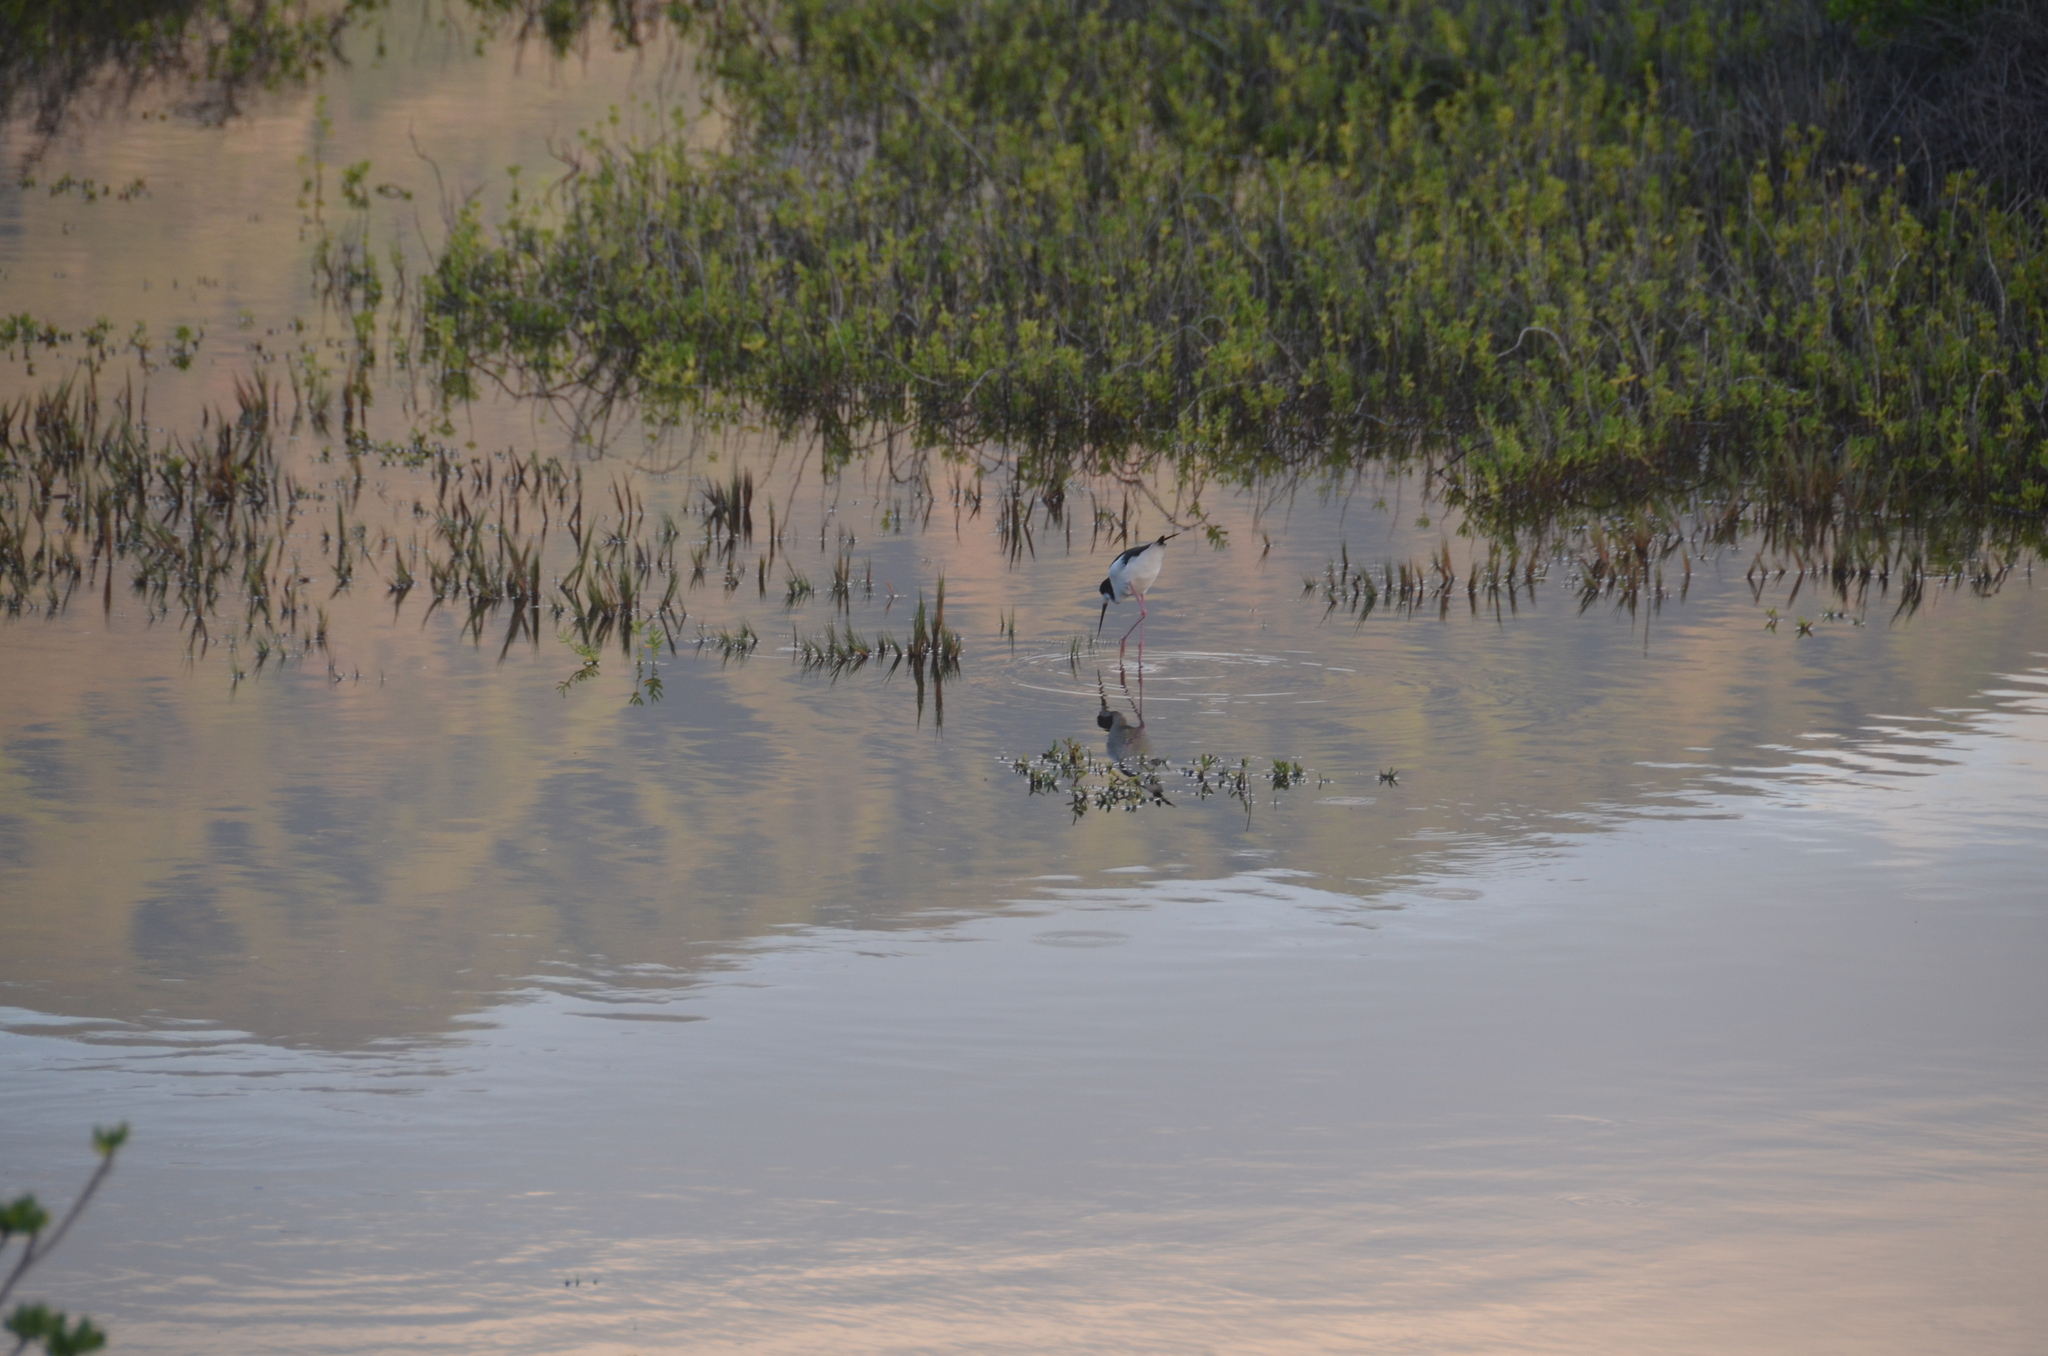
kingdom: Animalia
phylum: Chordata
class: Aves
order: Charadriiformes
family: Recurvirostridae
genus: Himantopus
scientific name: Himantopus mexicanus
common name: Black-necked stilt
